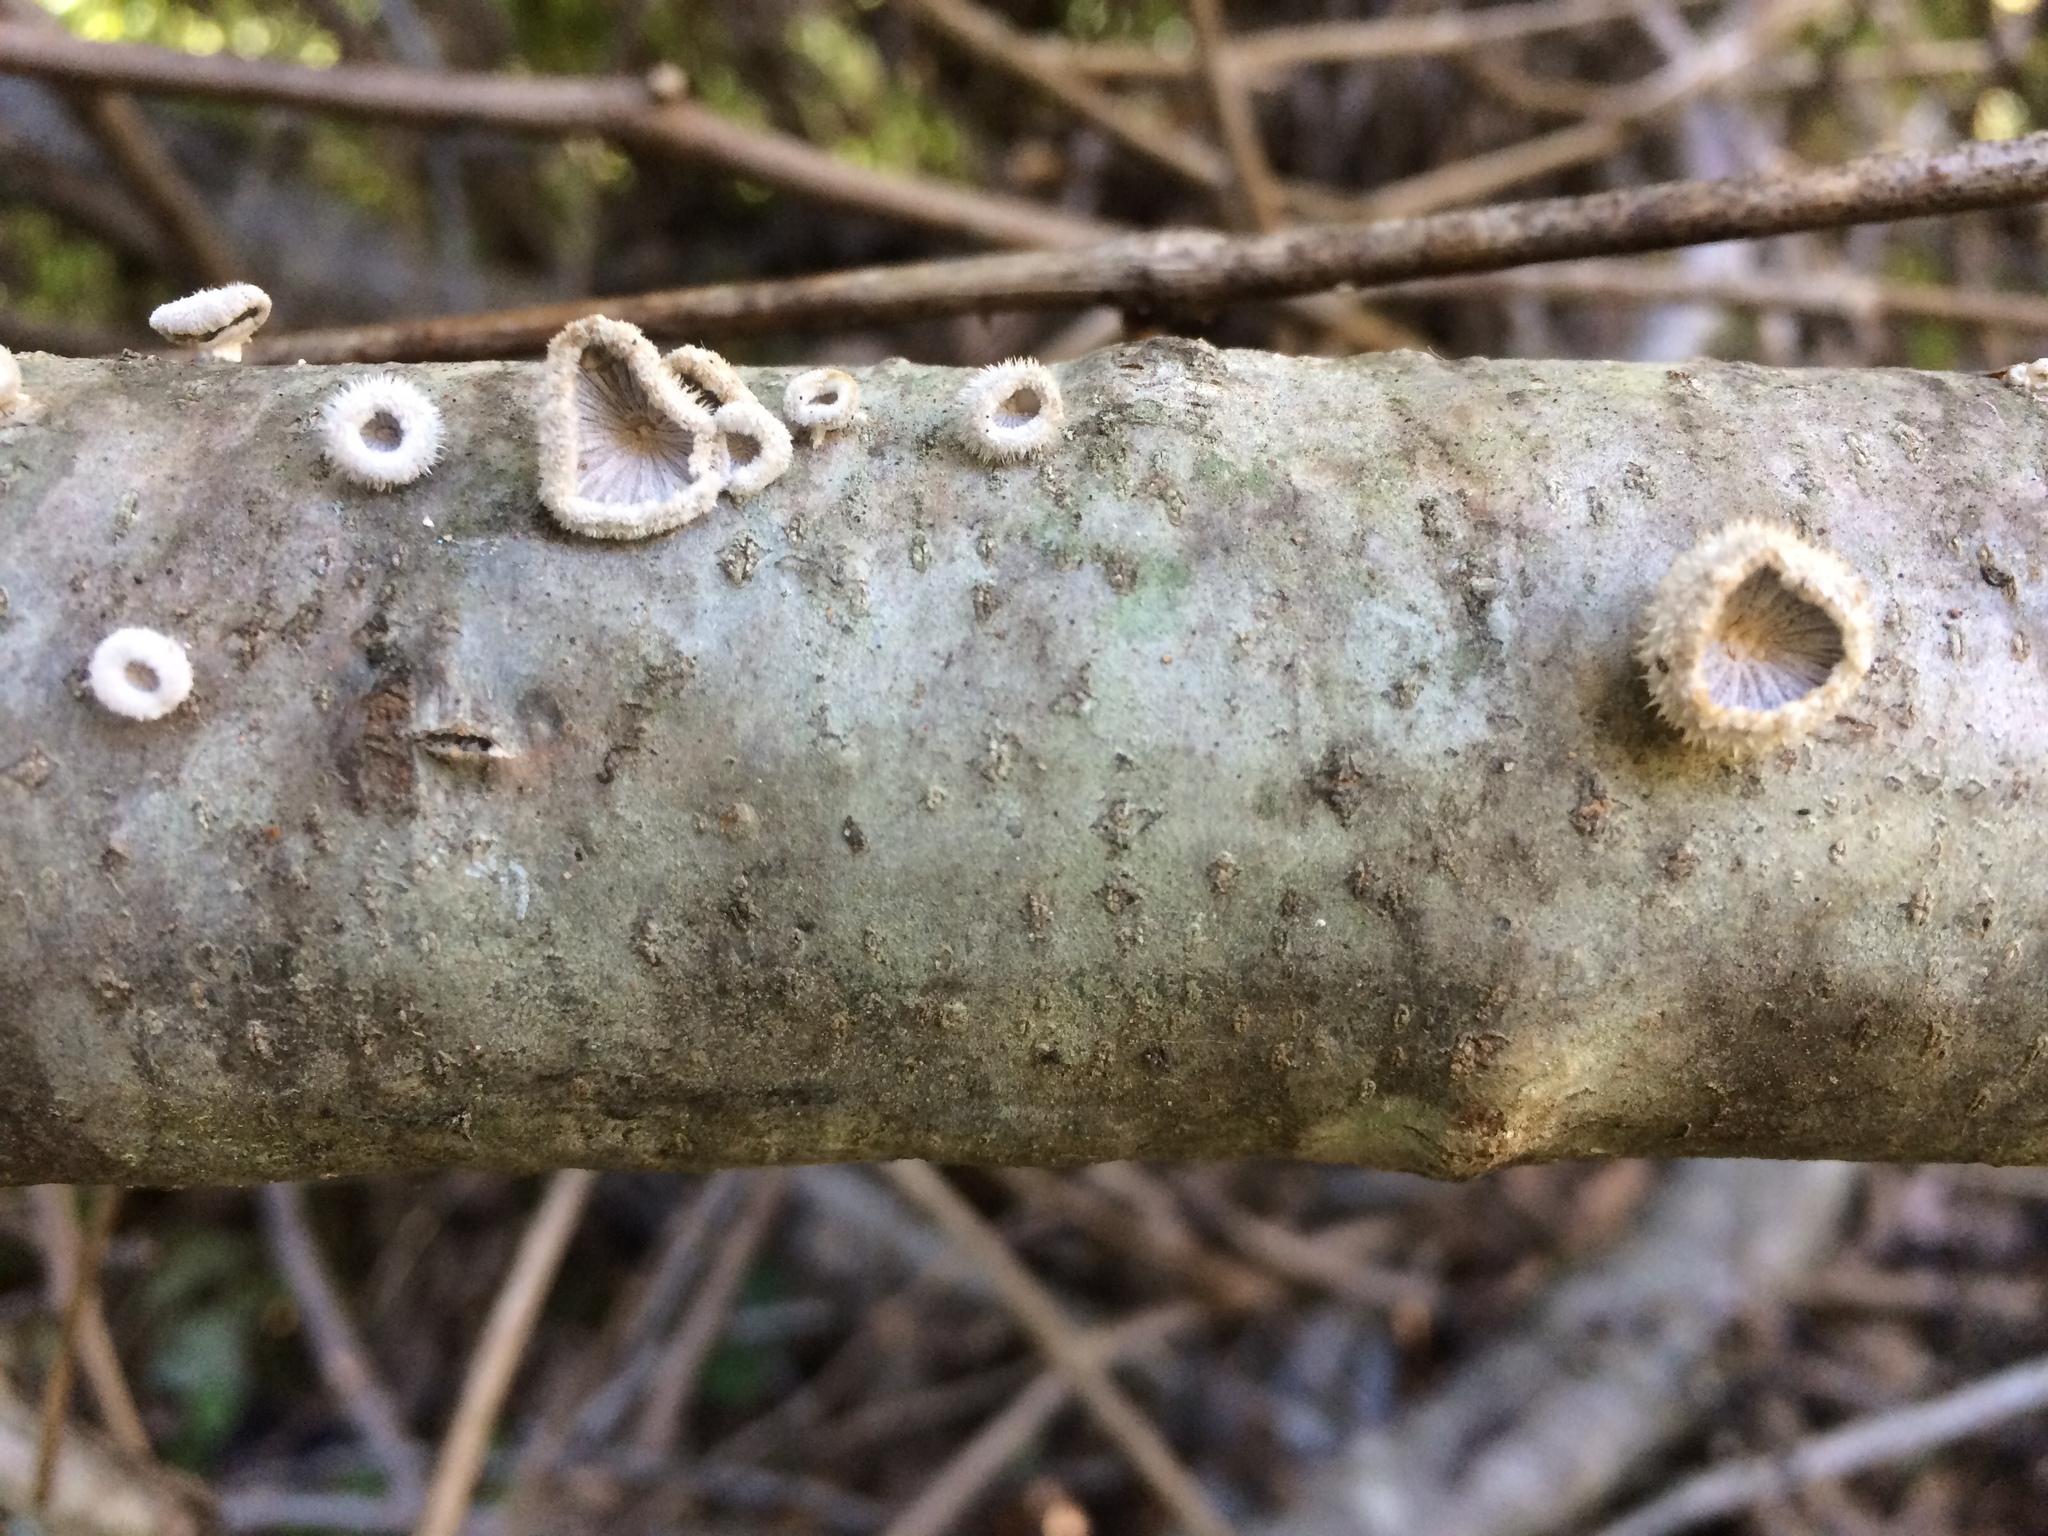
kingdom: Fungi
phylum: Basidiomycota
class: Agaricomycetes
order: Agaricales
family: Schizophyllaceae
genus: Schizophyllum
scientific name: Schizophyllum commune
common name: Common porecrust
